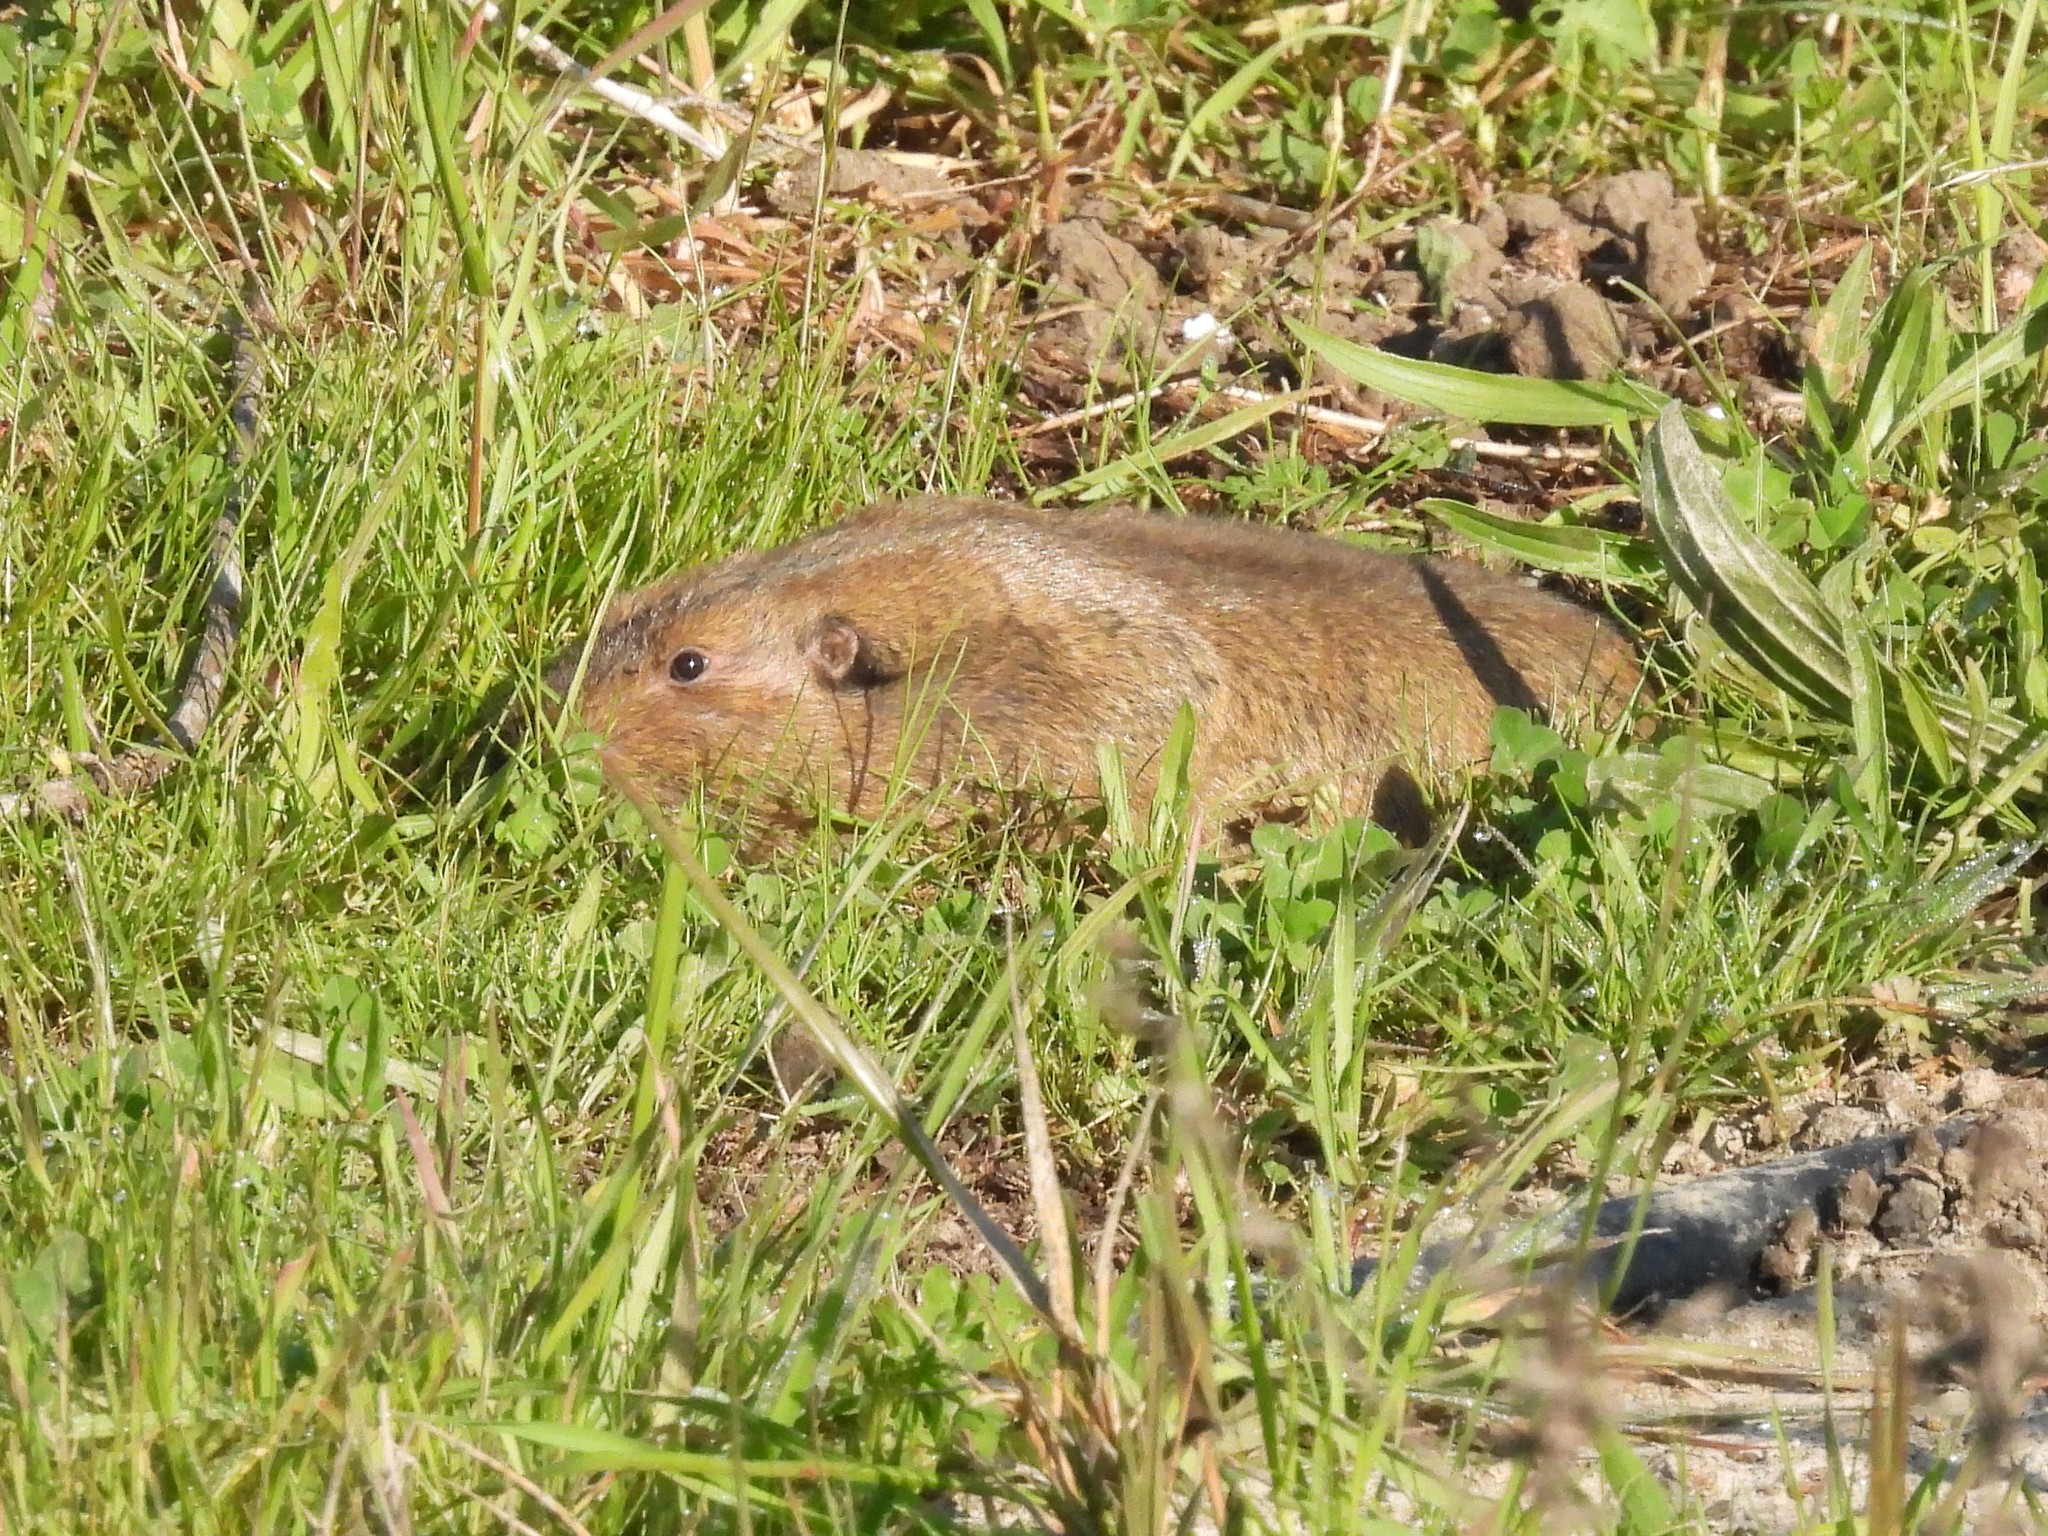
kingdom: Animalia
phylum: Chordata
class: Mammalia
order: Rodentia
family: Geomyidae
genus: Thomomys
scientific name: Thomomys bottae
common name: Botta's pocket gopher
